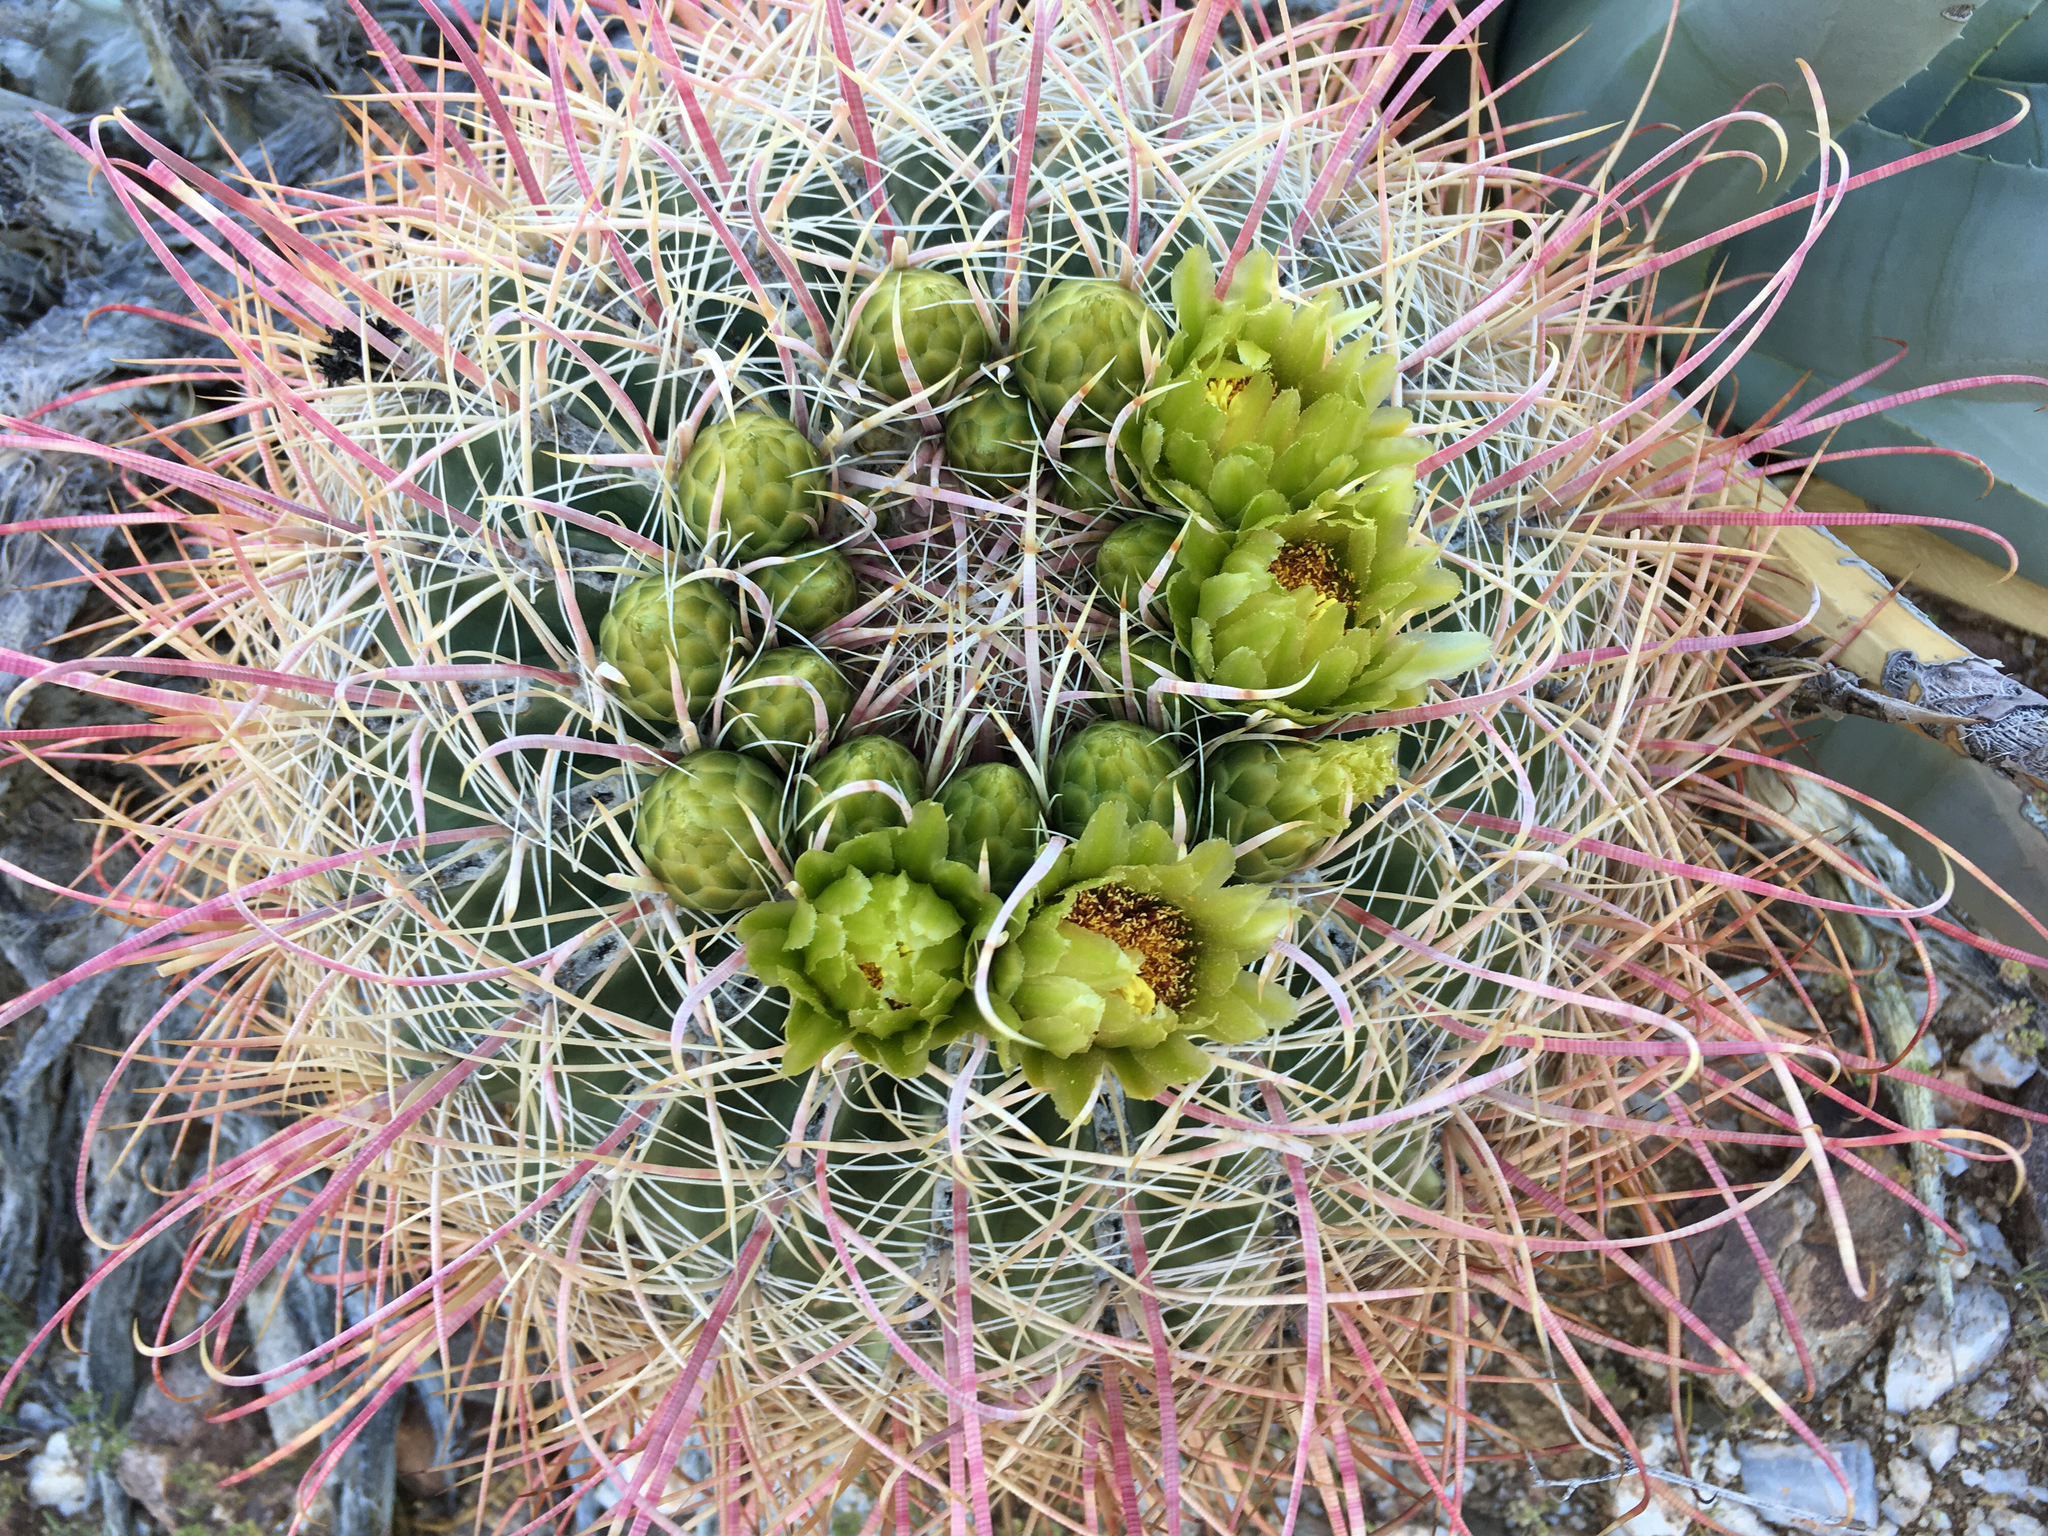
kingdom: Plantae
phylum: Tracheophyta
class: Magnoliopsida
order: Caryophyllales
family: Cactaceae
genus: Ferocactus
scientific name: Ferocactus cylindraceus
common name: California barrel cactus
